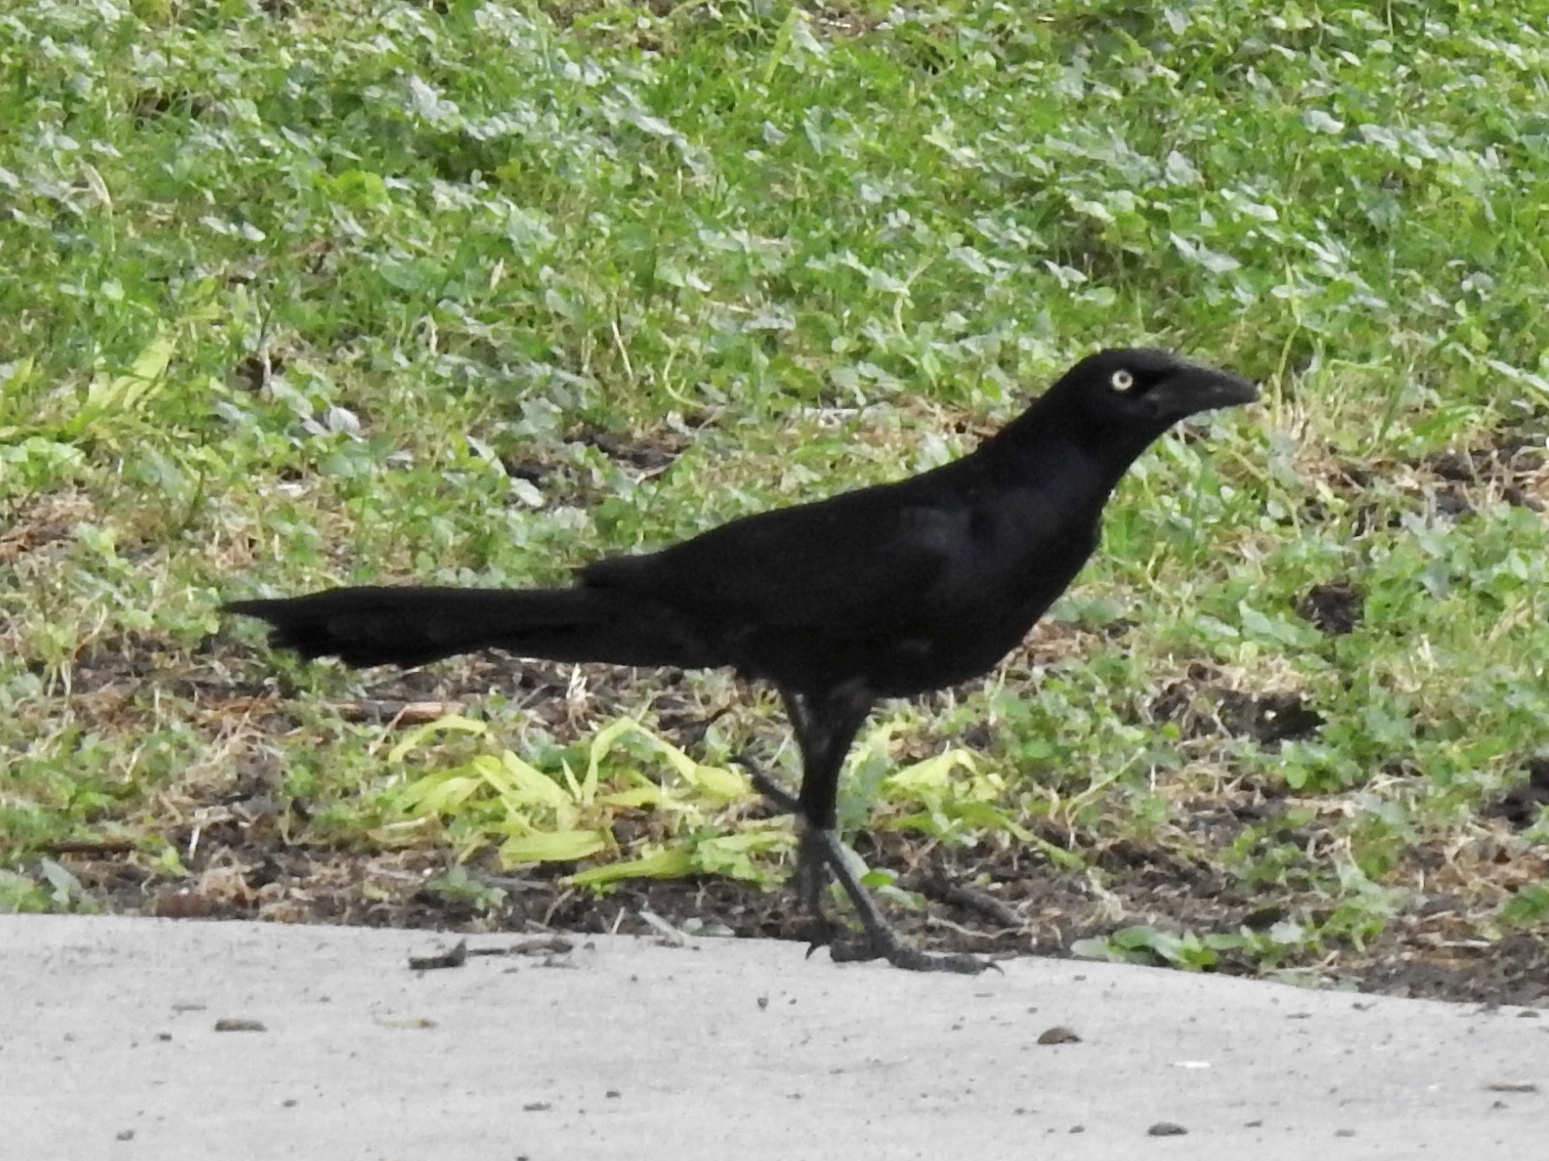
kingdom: Animalia
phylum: Chordata
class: Aves
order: Passeriformes
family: Icteridae
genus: Quiscalus
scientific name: Quiscalus mexicanus
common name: Great-tailed grackle
